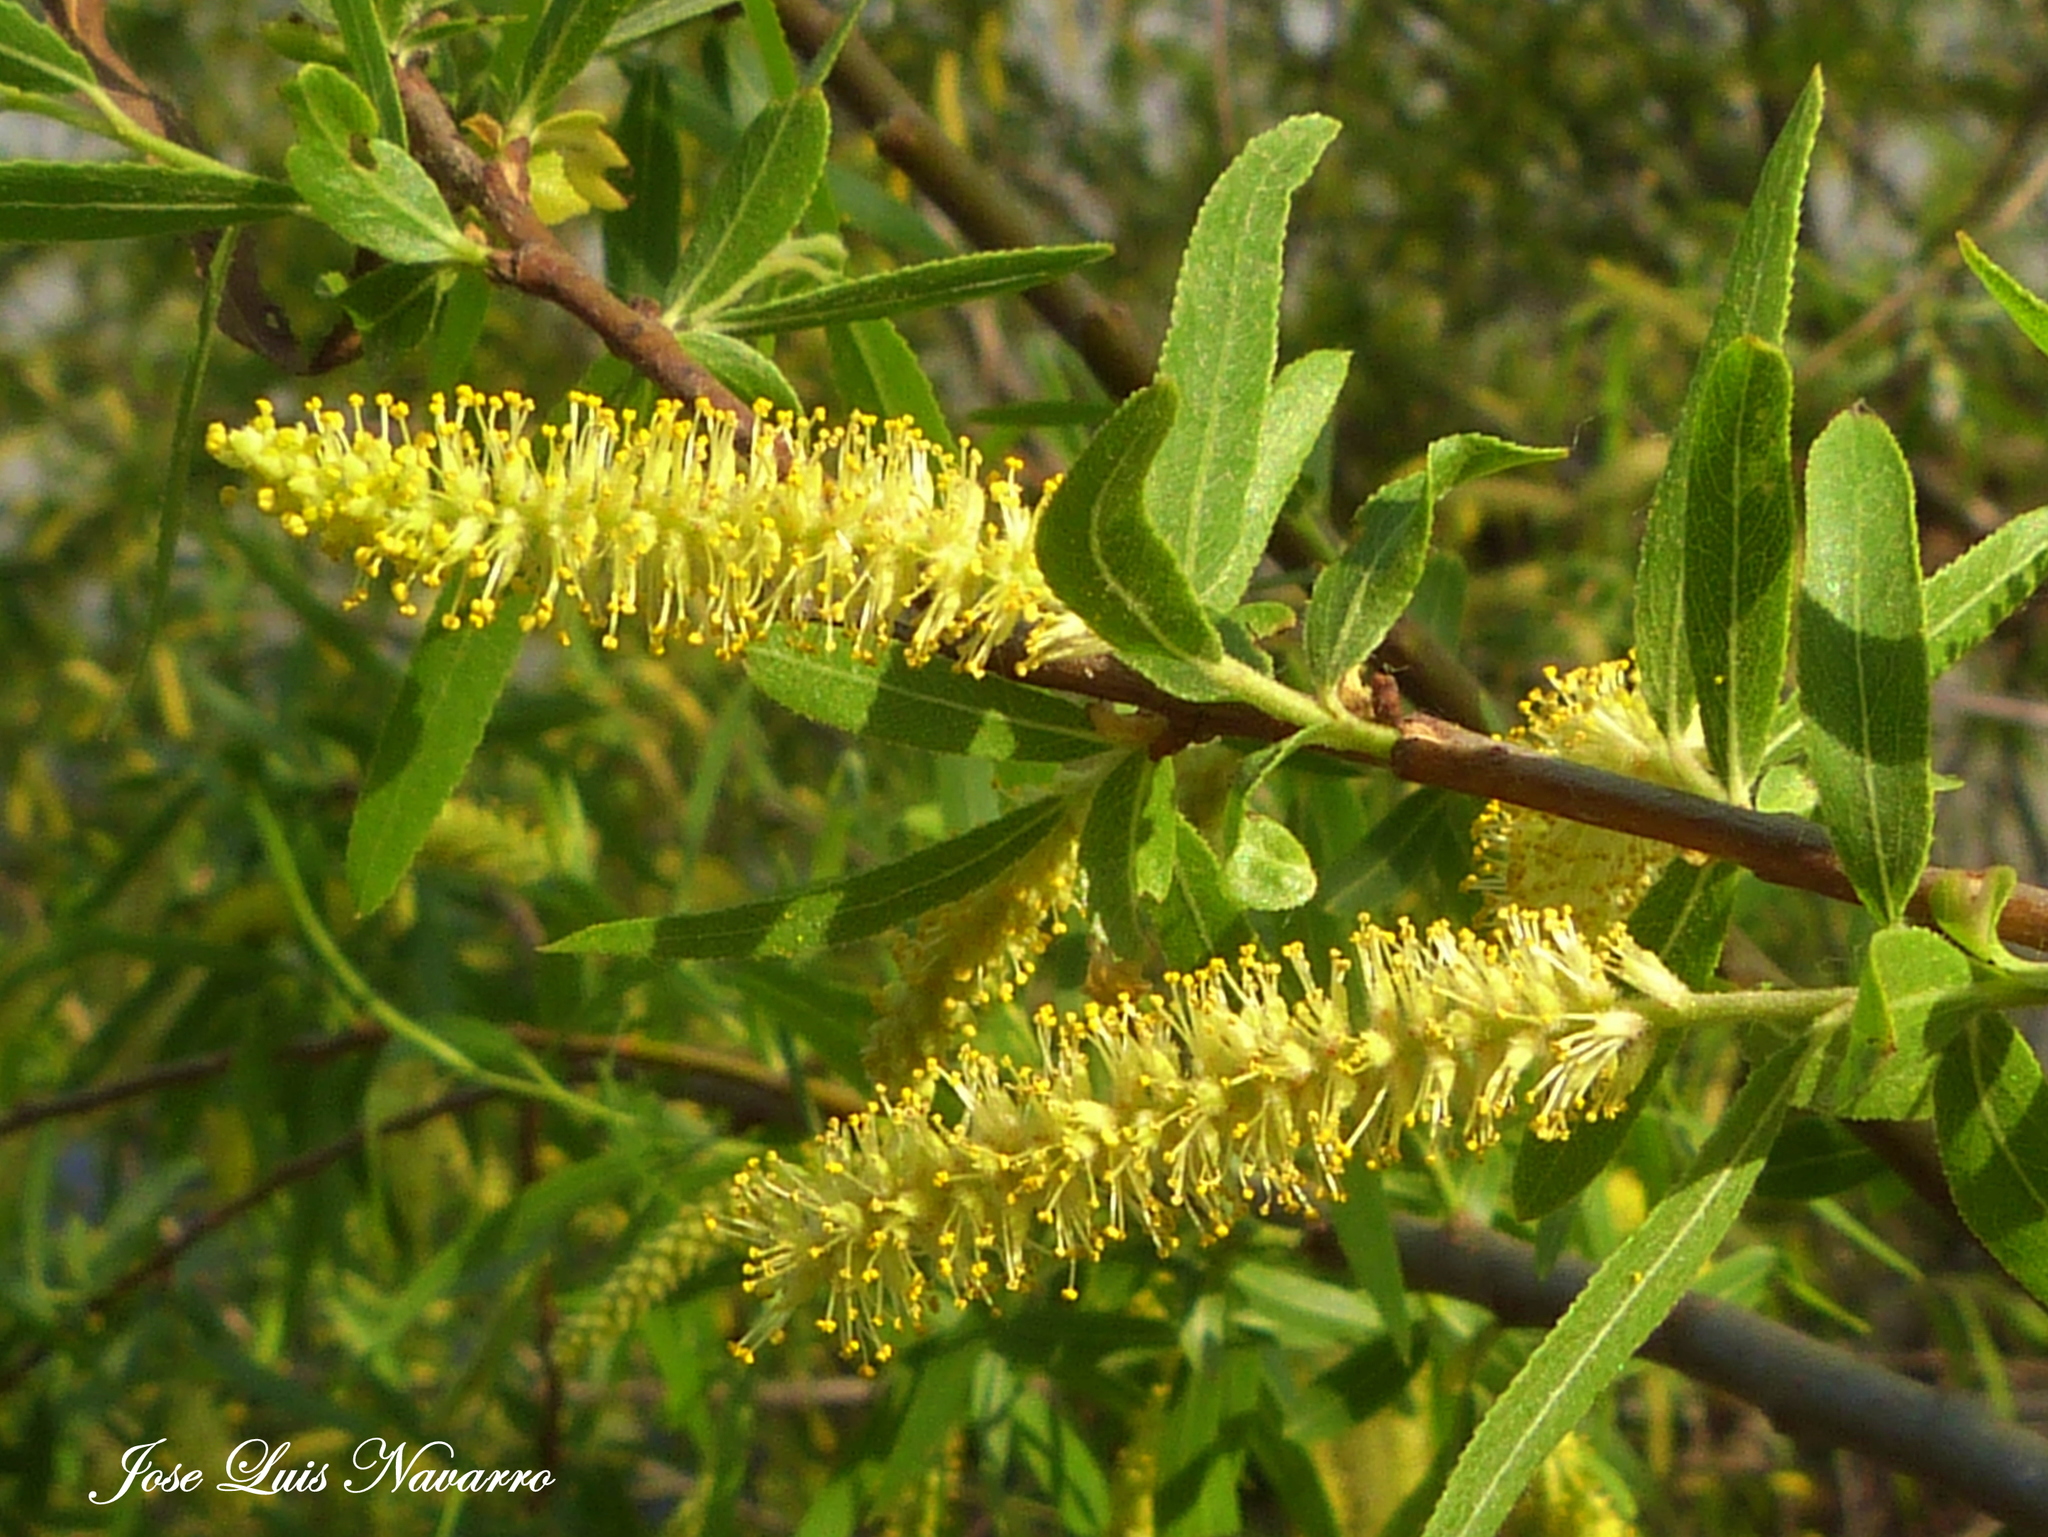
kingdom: Plantae
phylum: Tracheophyta
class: Magnoliopsida
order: Malpighiales
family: Salicaceae
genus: Salix
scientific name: Salix humboldtiana
